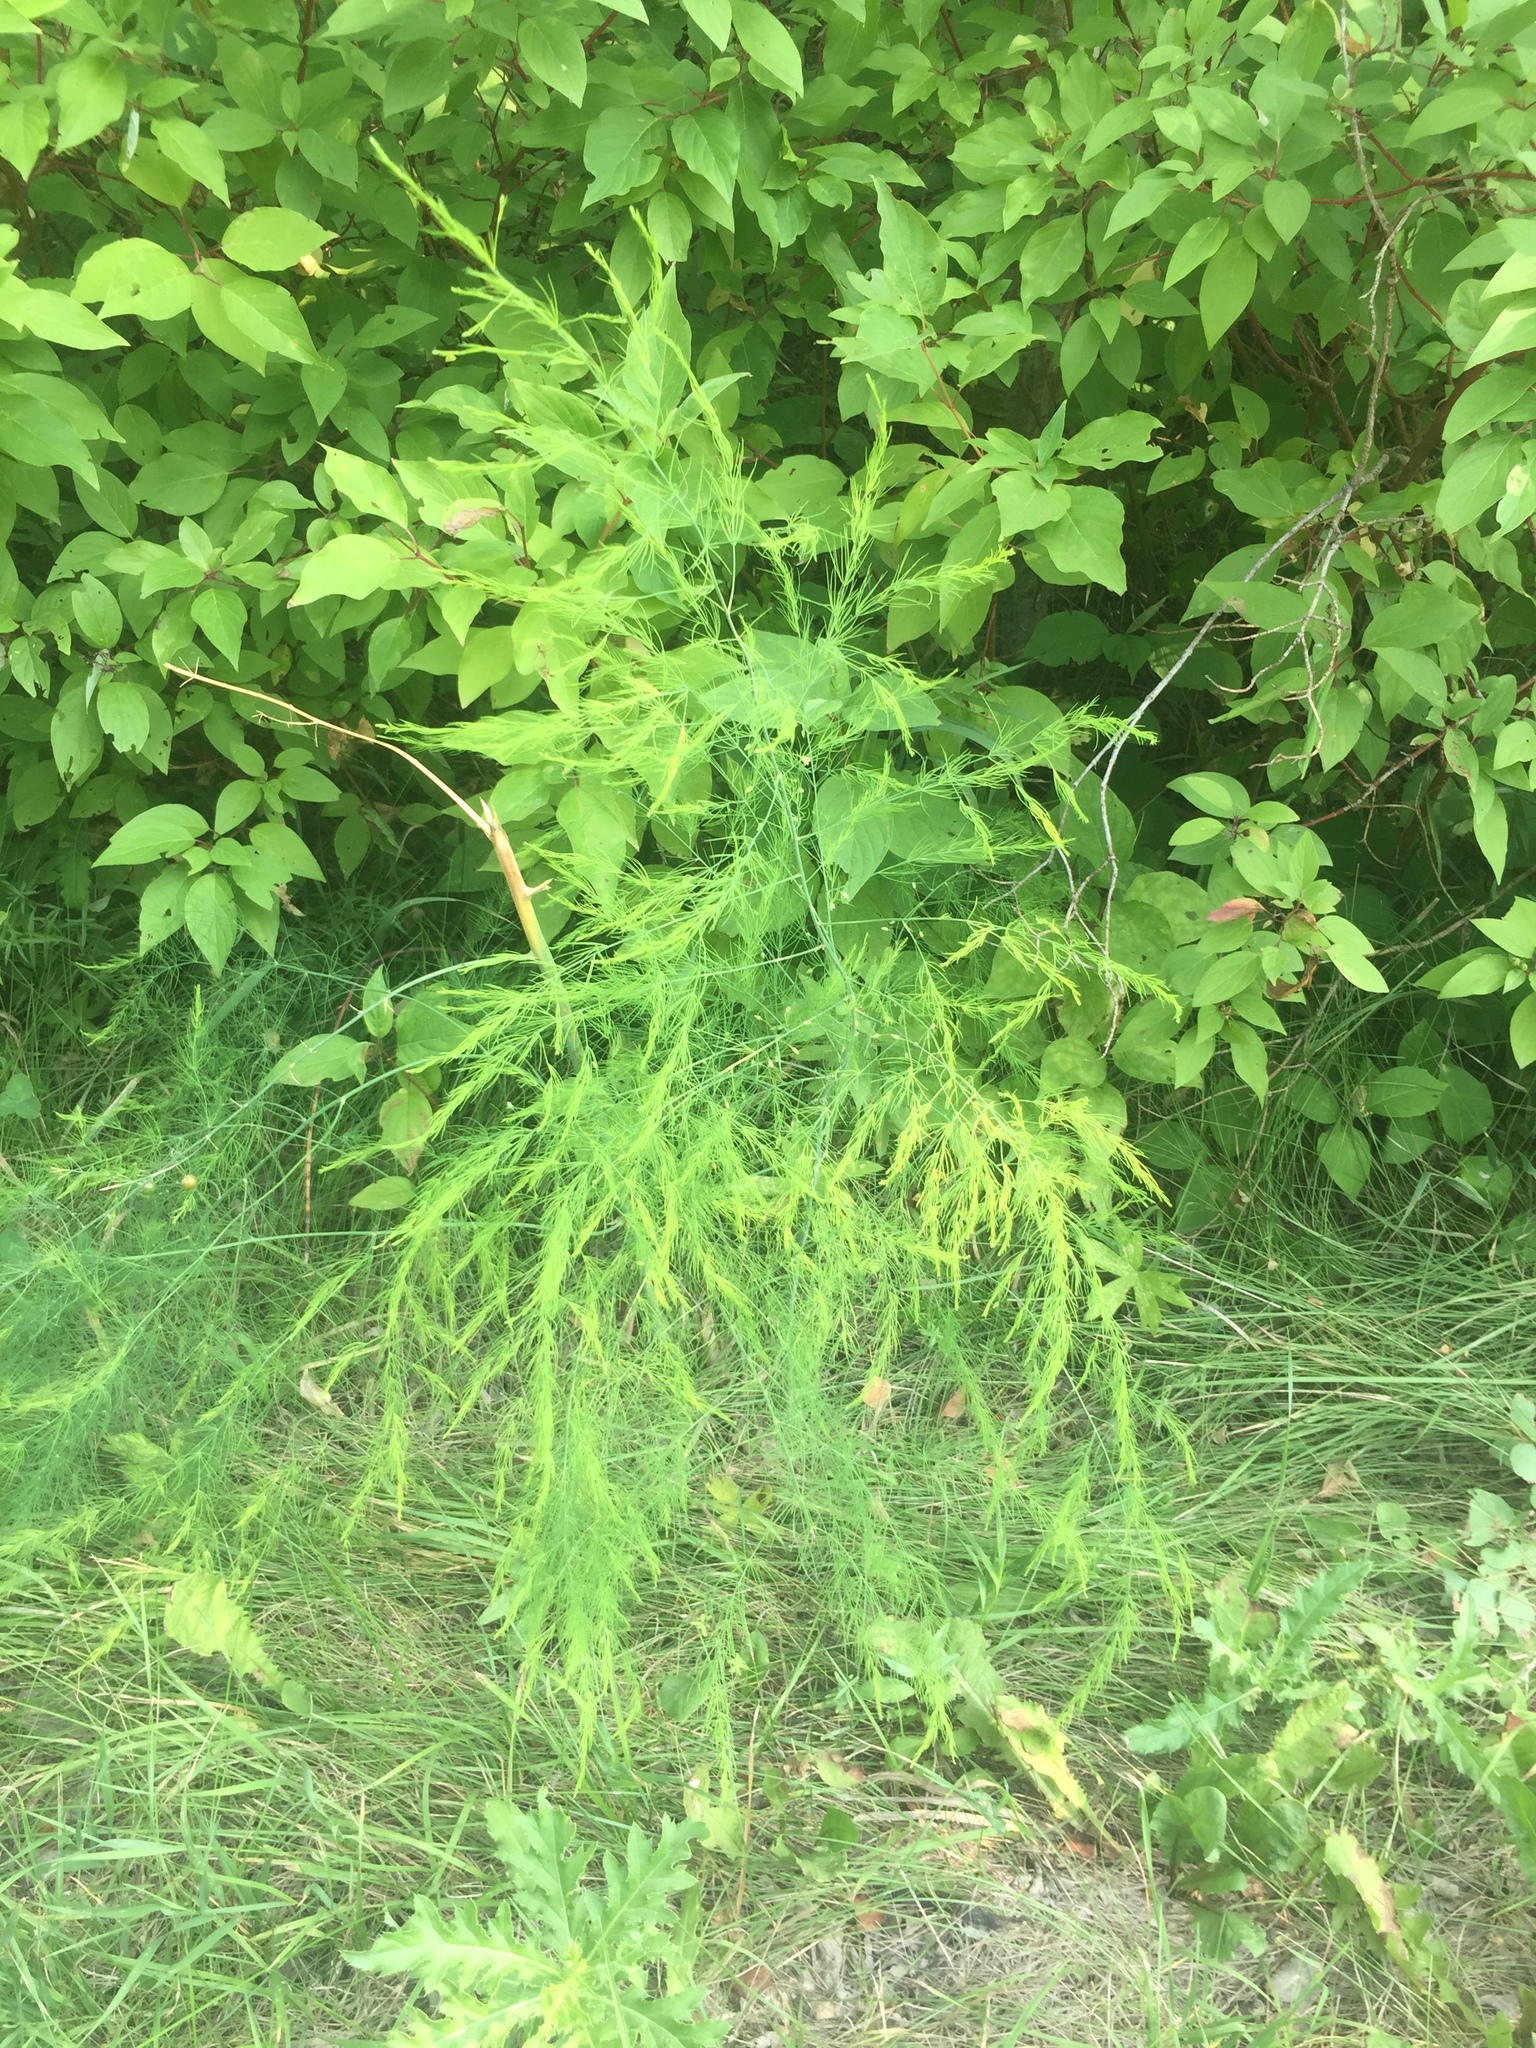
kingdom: Plantae
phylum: Tracheophyta
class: Liliopsida
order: Asparagales
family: Asparagaceae
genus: Asparagus
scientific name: Asparagus officinalis
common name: Garden asparagus
